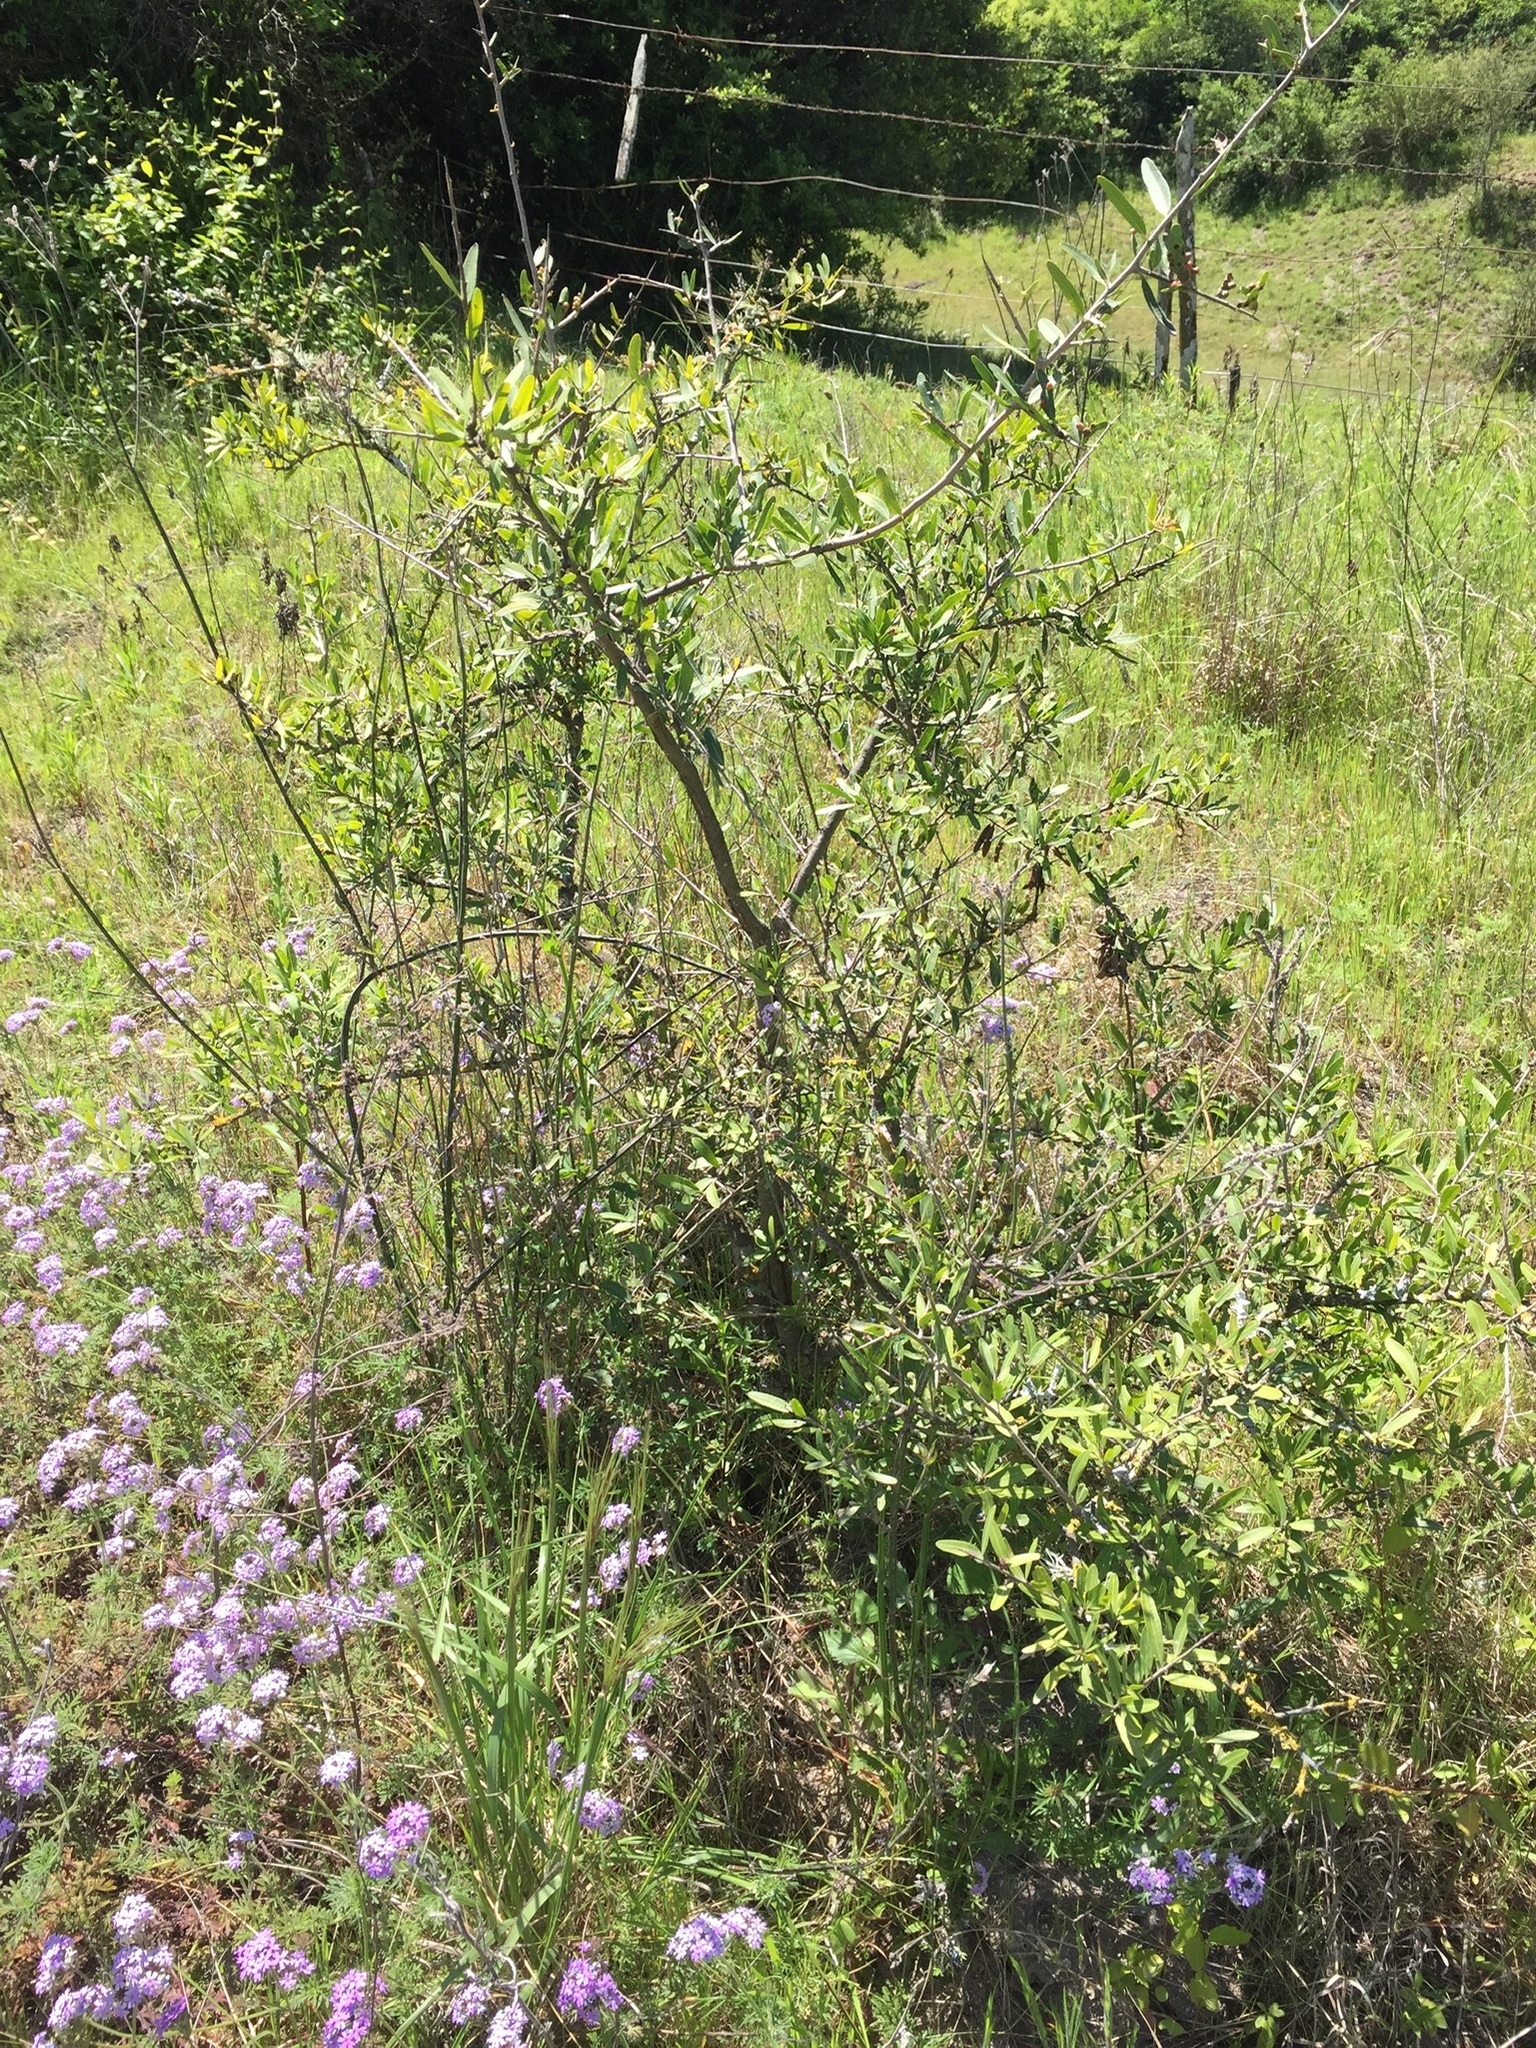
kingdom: Plantae
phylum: Tracheophyta
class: Magnoliopsida
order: Sapindales
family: Anacardiaceae
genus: Schinus
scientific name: Schinus longifolia
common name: Longleaf peppertree
